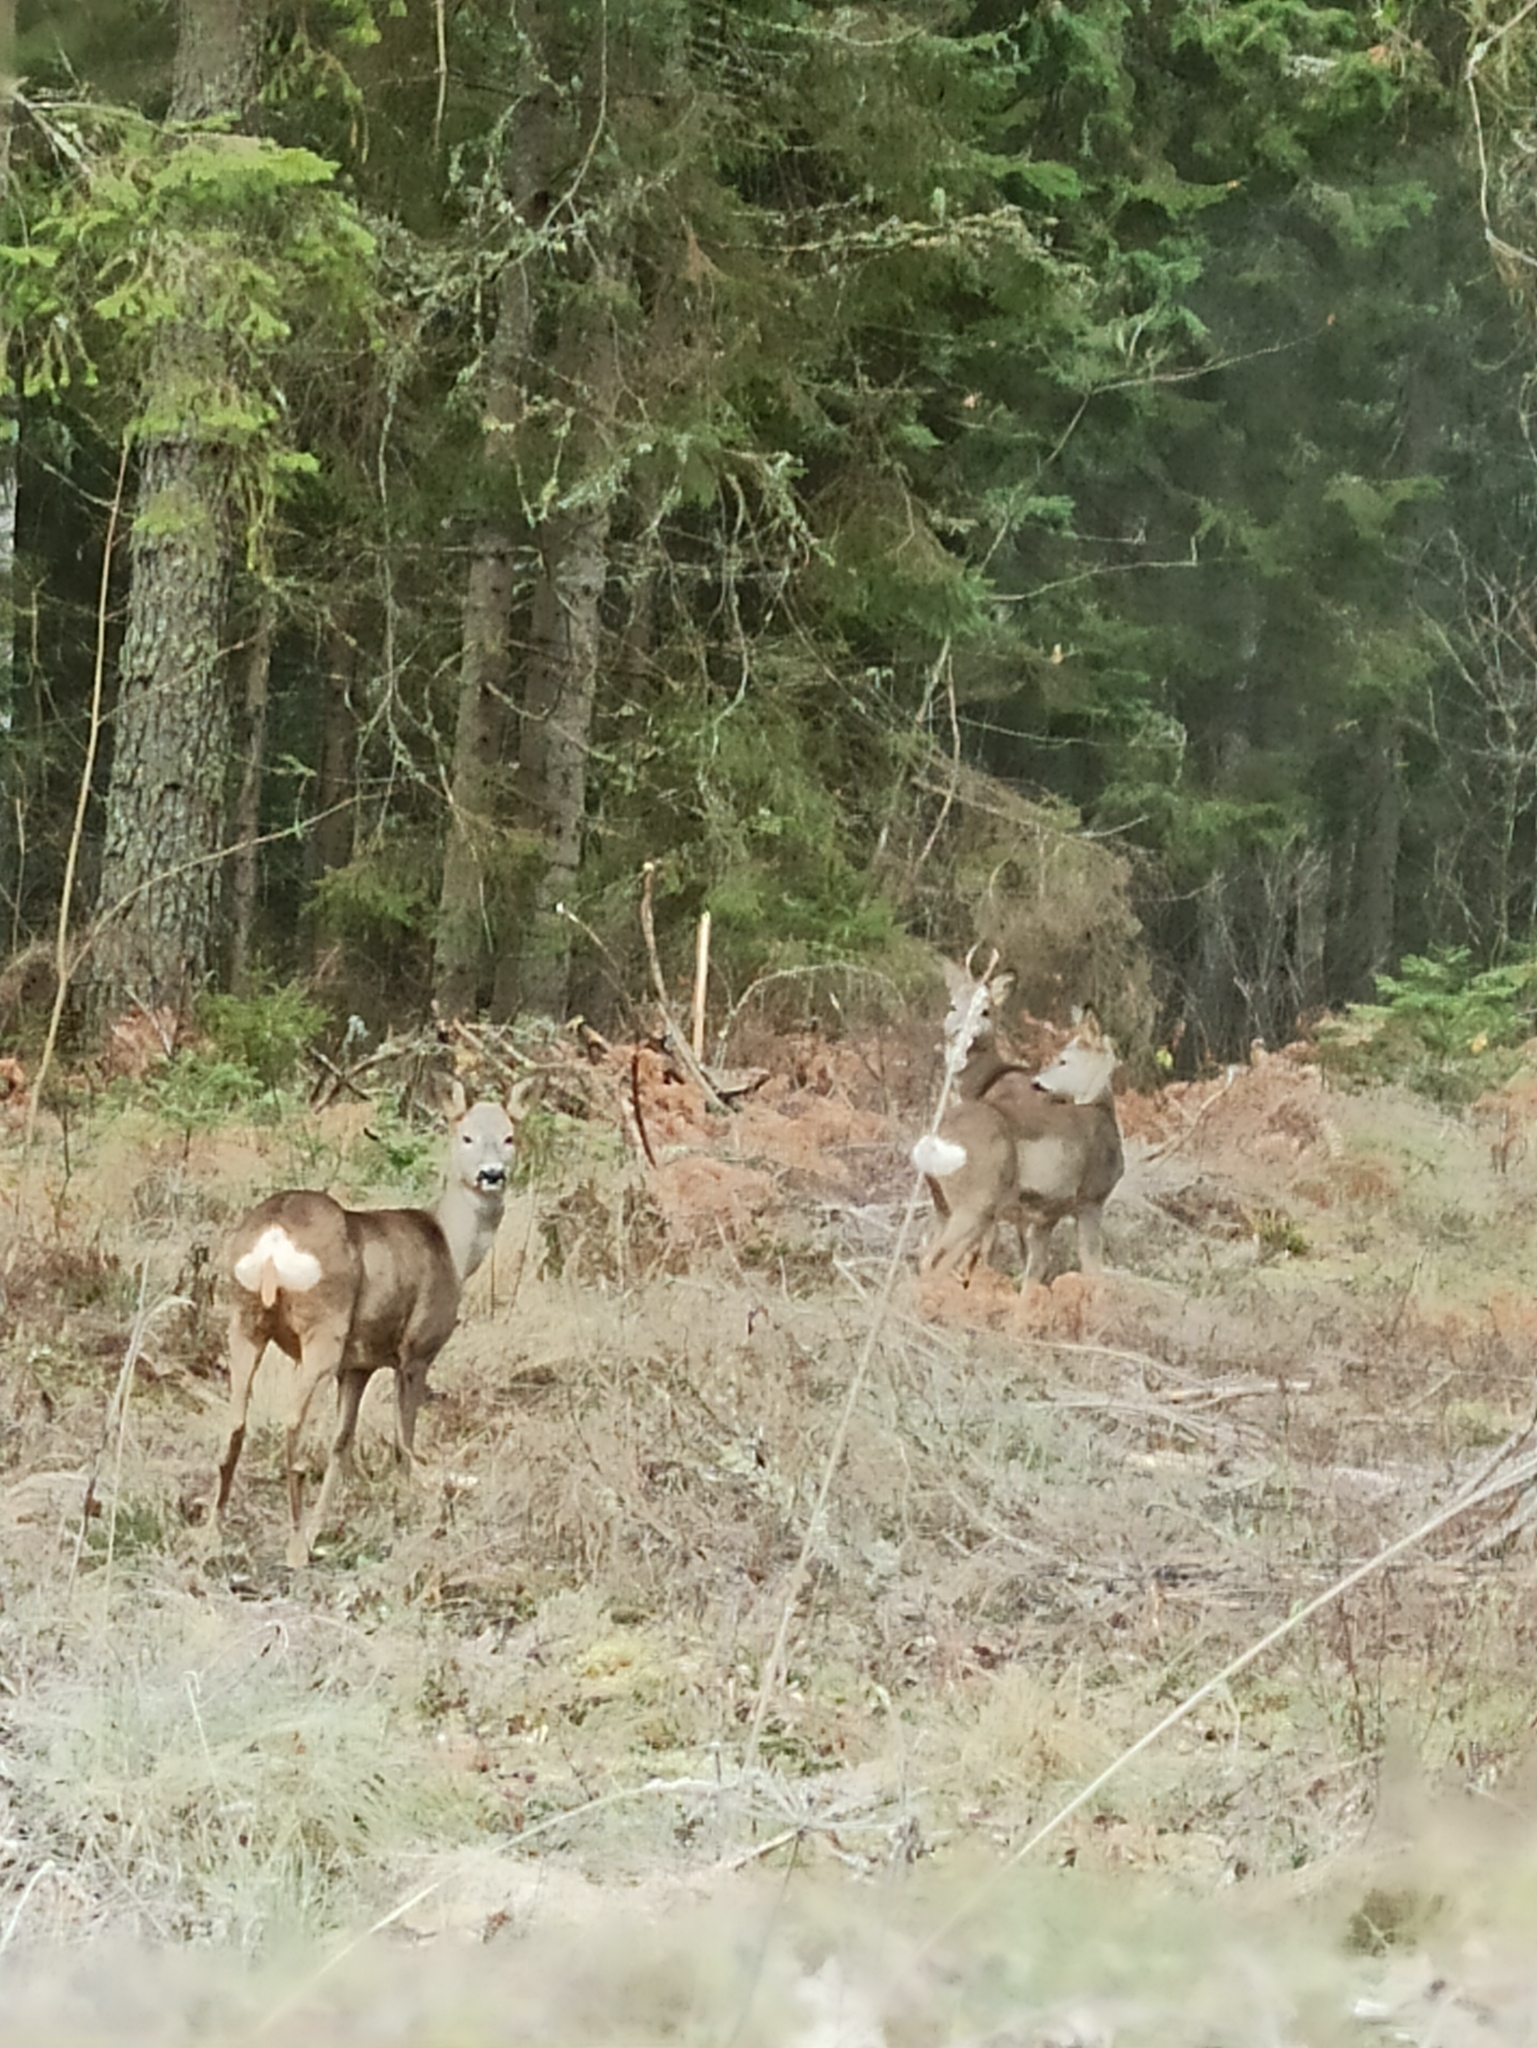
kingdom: Animalia
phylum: Chordata
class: Mammalia
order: Artiodactyla
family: Cervidae
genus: Capreolus
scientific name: Capreolus capreolus
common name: Western roe deer
